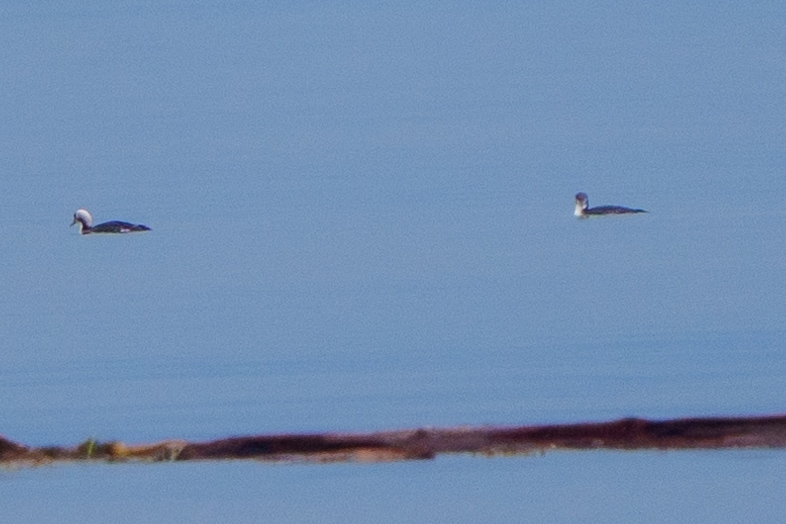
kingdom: Animalia
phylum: Chordata
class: Aves
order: Gaviiformes
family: Gaviidae
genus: Gavia
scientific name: Gavia pacifica
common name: Pacific loon
